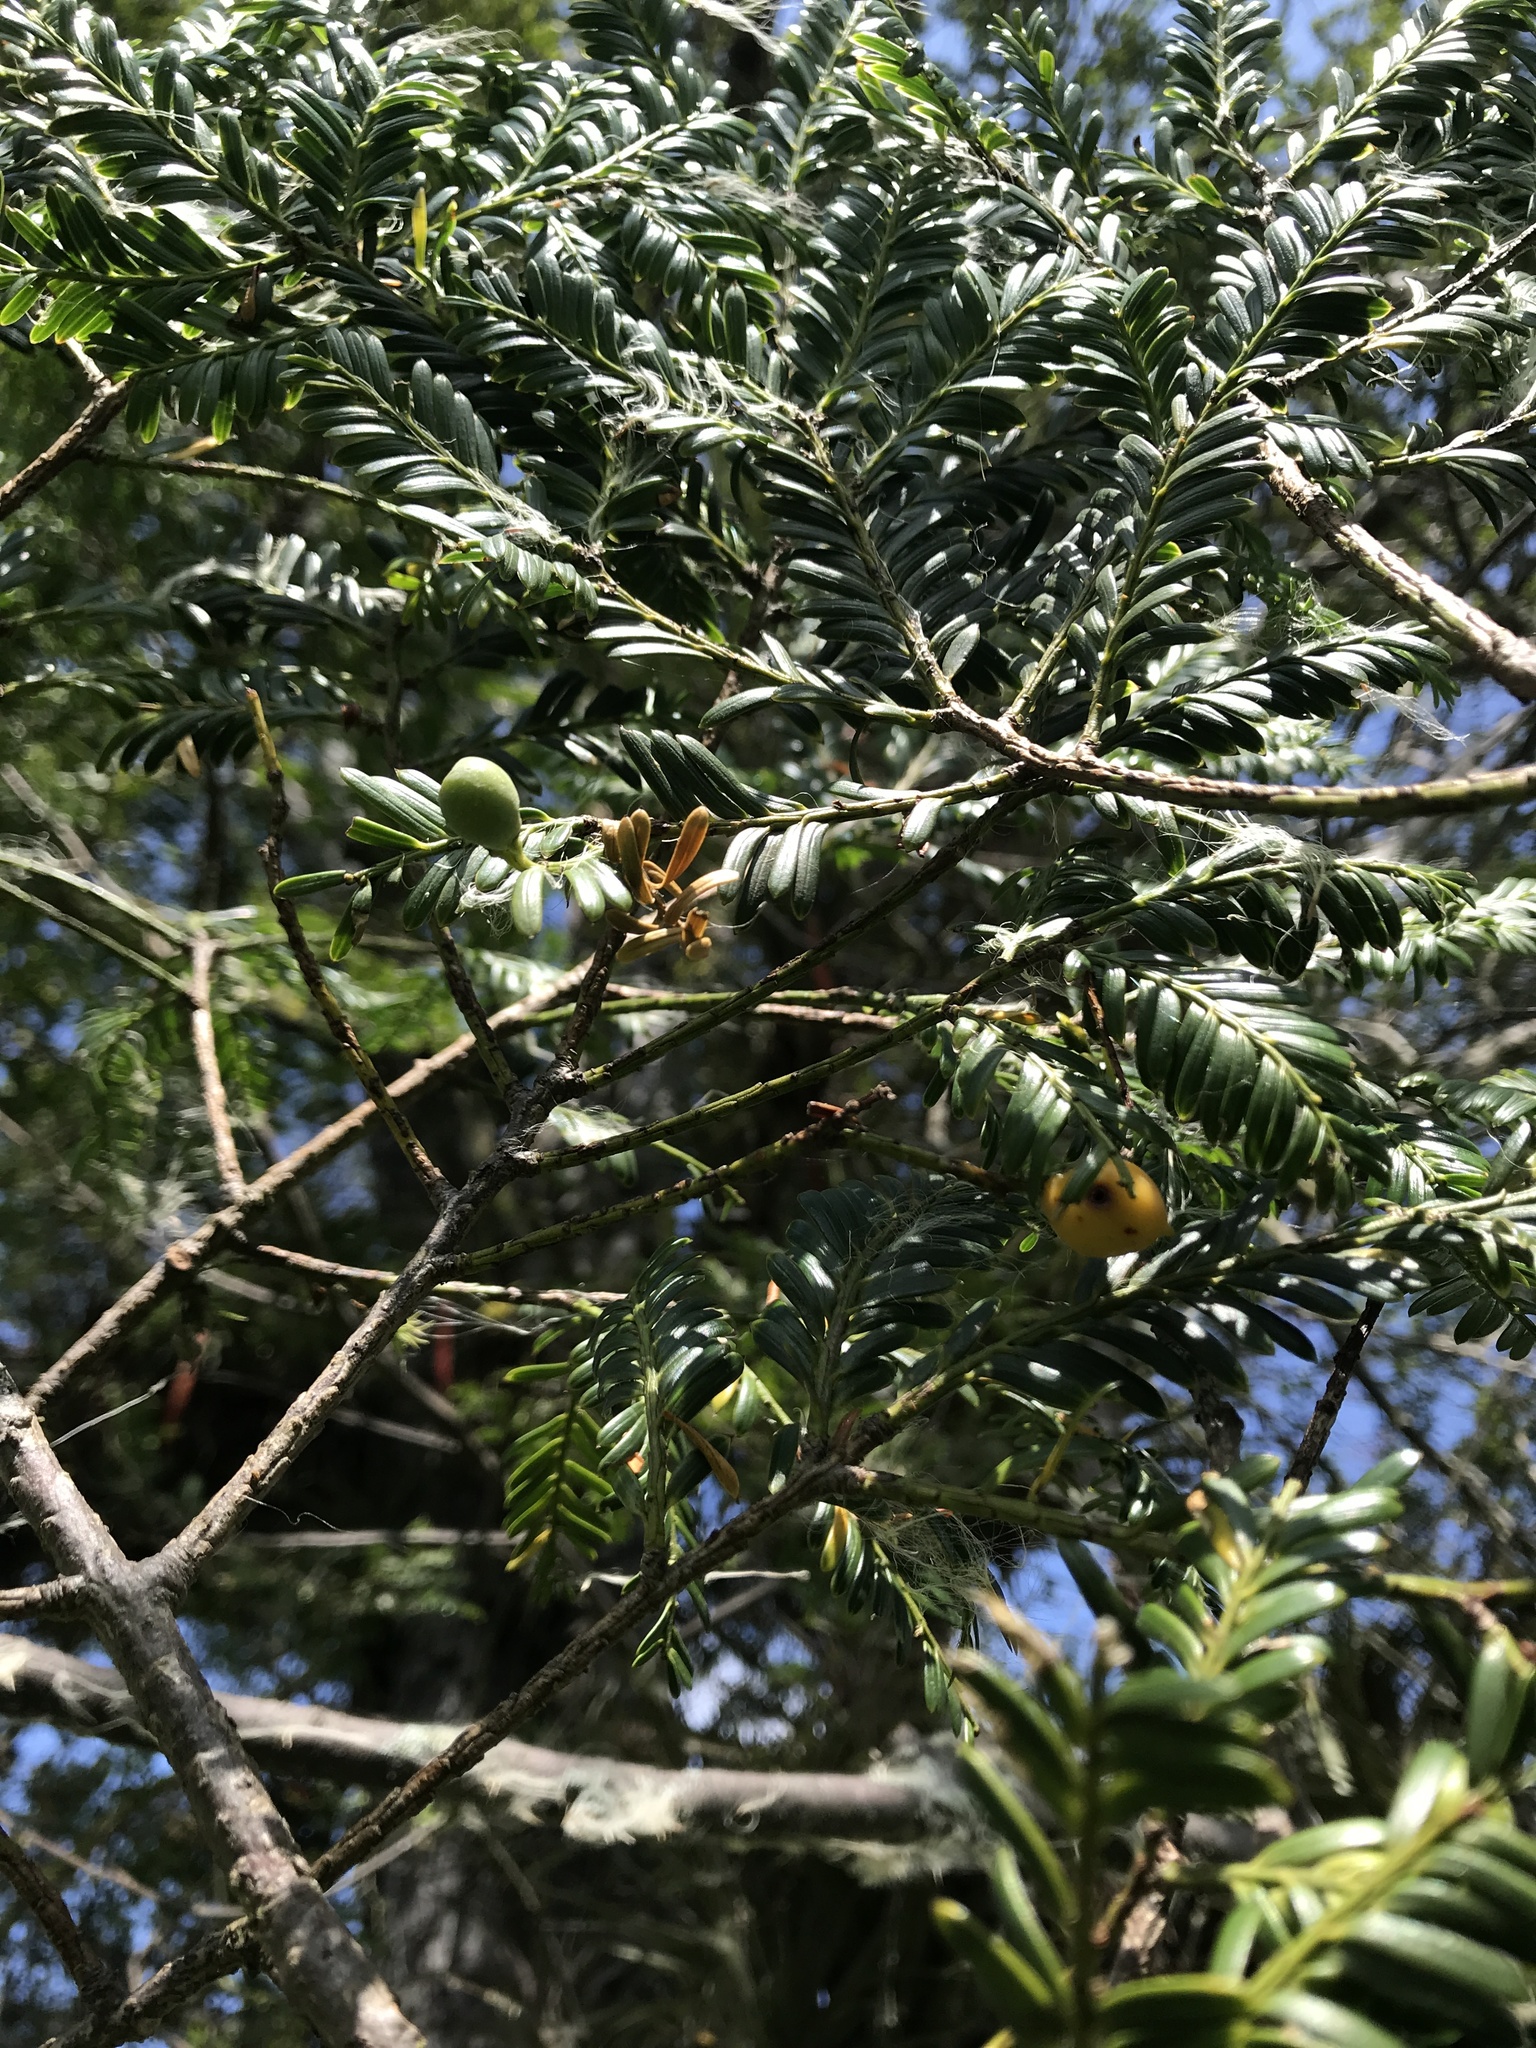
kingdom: Plantae
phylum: Tracheophyta
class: Pinopsida
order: Pinales
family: Podocarpaceae
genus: Prumnopitys
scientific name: Prumnopitys montana
